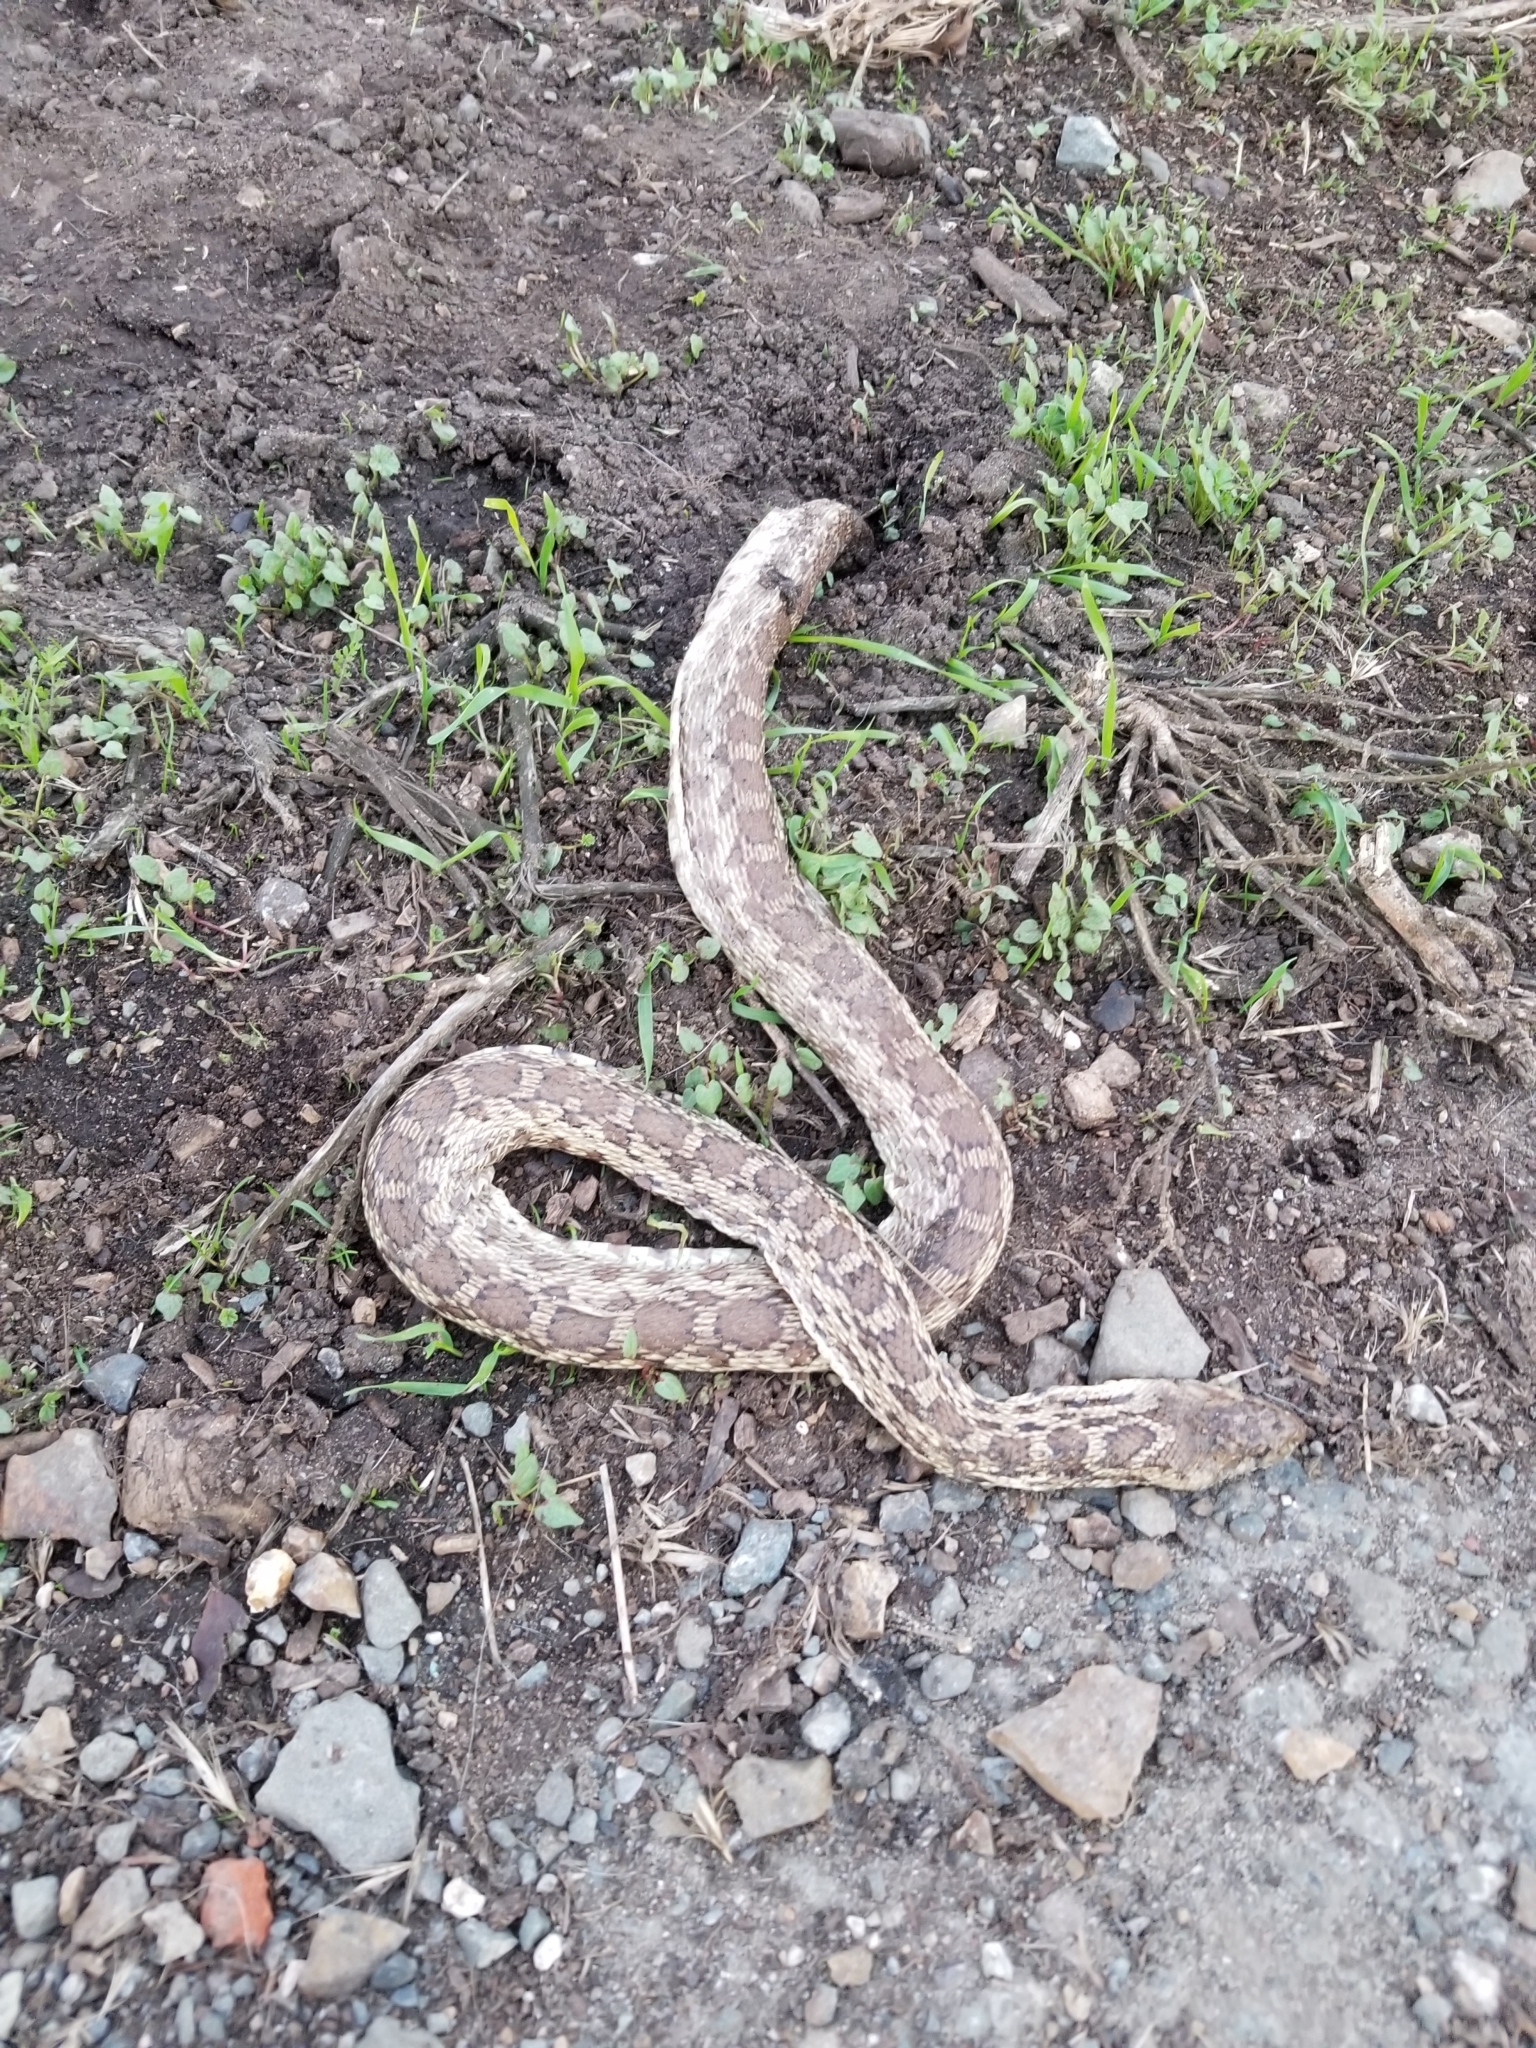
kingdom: Animalia
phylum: Chordata
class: Squamata
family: Colubridae
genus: Pituophis
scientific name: Pituophis catenifer
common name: Gopher snake
